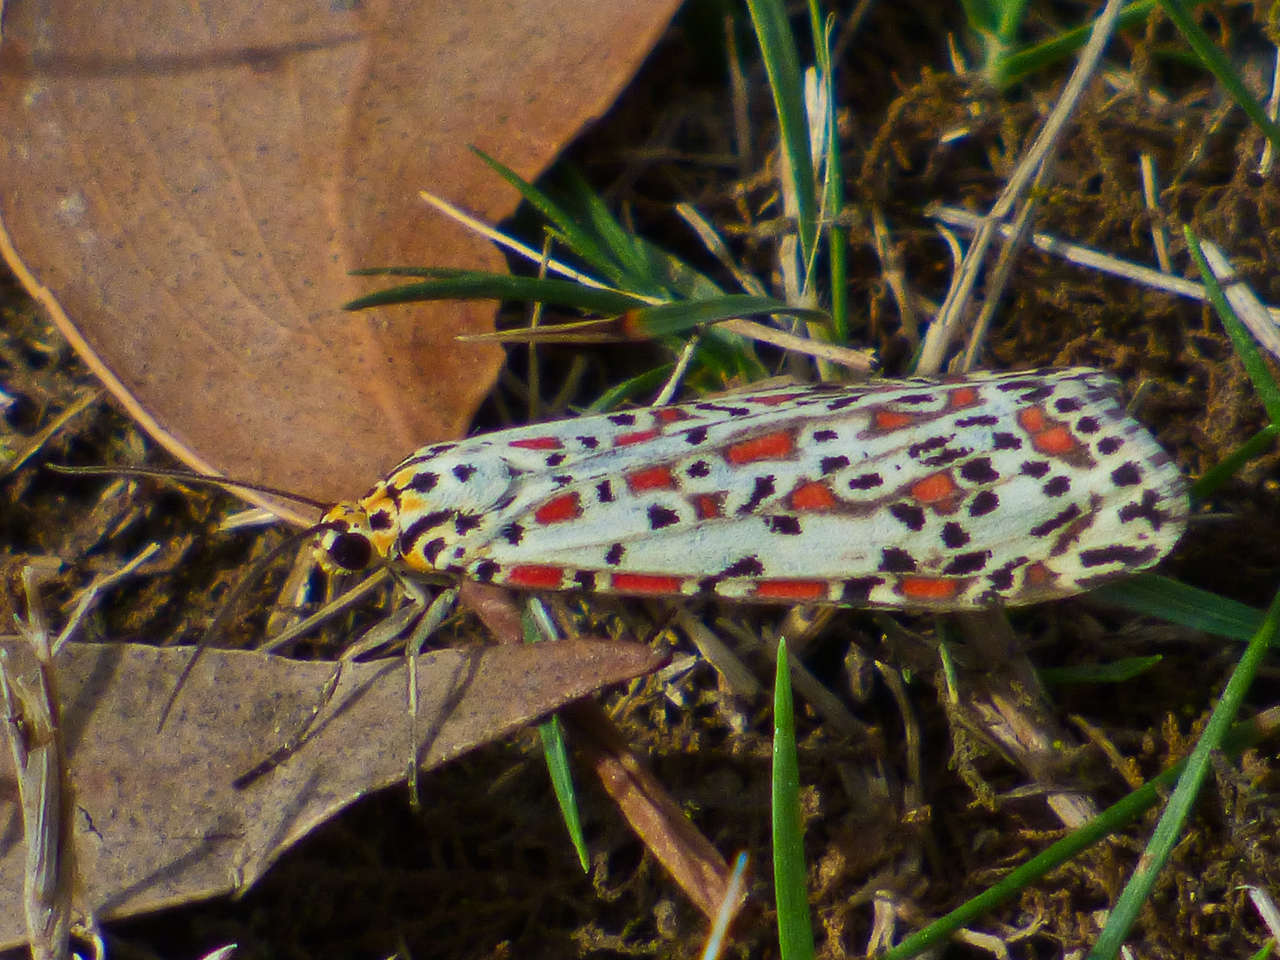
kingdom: Animalia
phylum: Arthropoda
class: Insecta
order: Lepidoptera
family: Erebidae
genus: Utetheisa
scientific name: Utetheisa pulchelloides
